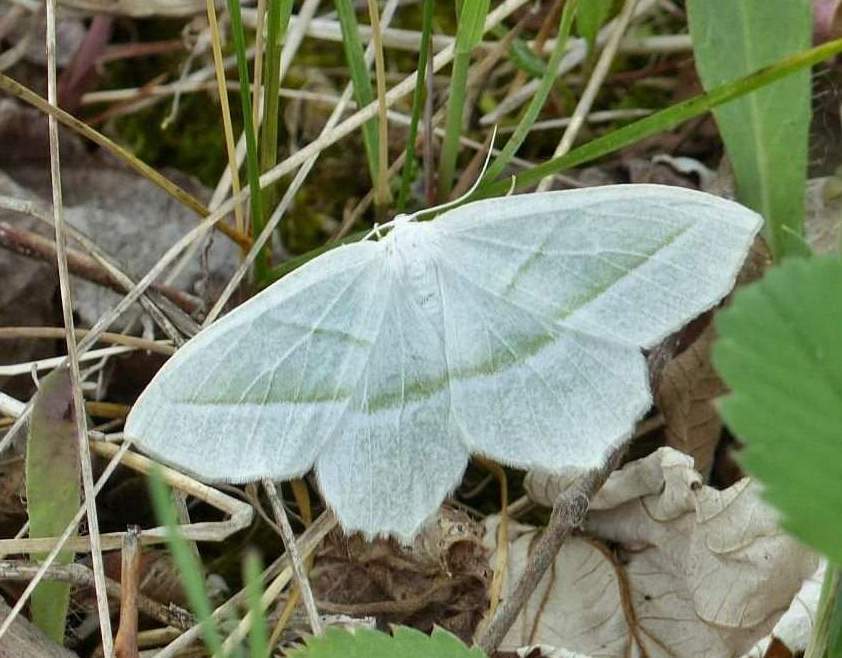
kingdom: Animalia
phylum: Arthropoda
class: Insecta
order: Lepidoptera
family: Geometridae
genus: Campaea
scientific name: Campaea perlata
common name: Fringed looper
